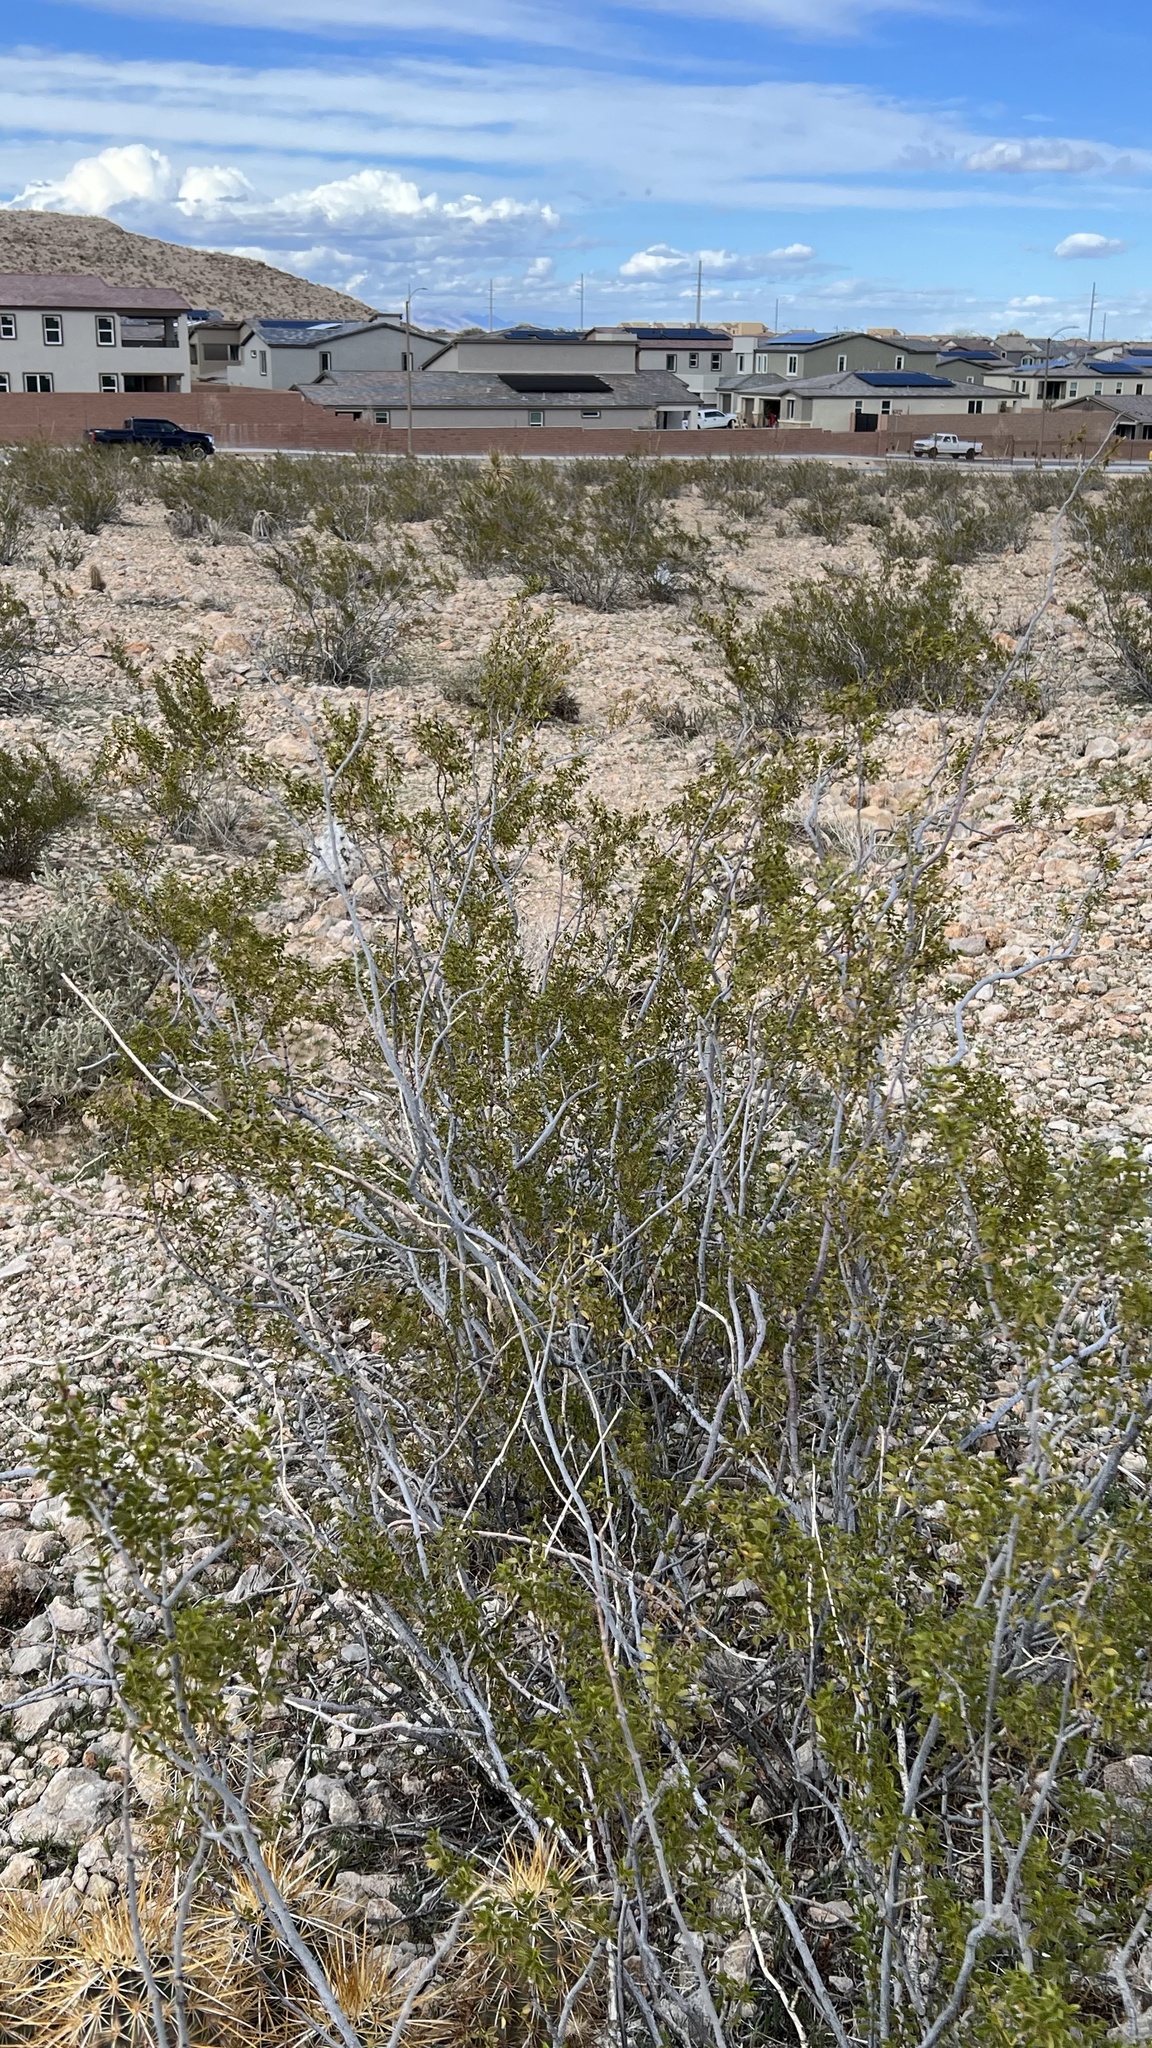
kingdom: Plantae
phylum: Tracheophyta
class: Magnoliopsida
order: Zygophyllales
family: Zygophyllaceae
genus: Larrea
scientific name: Larrea tridentata
